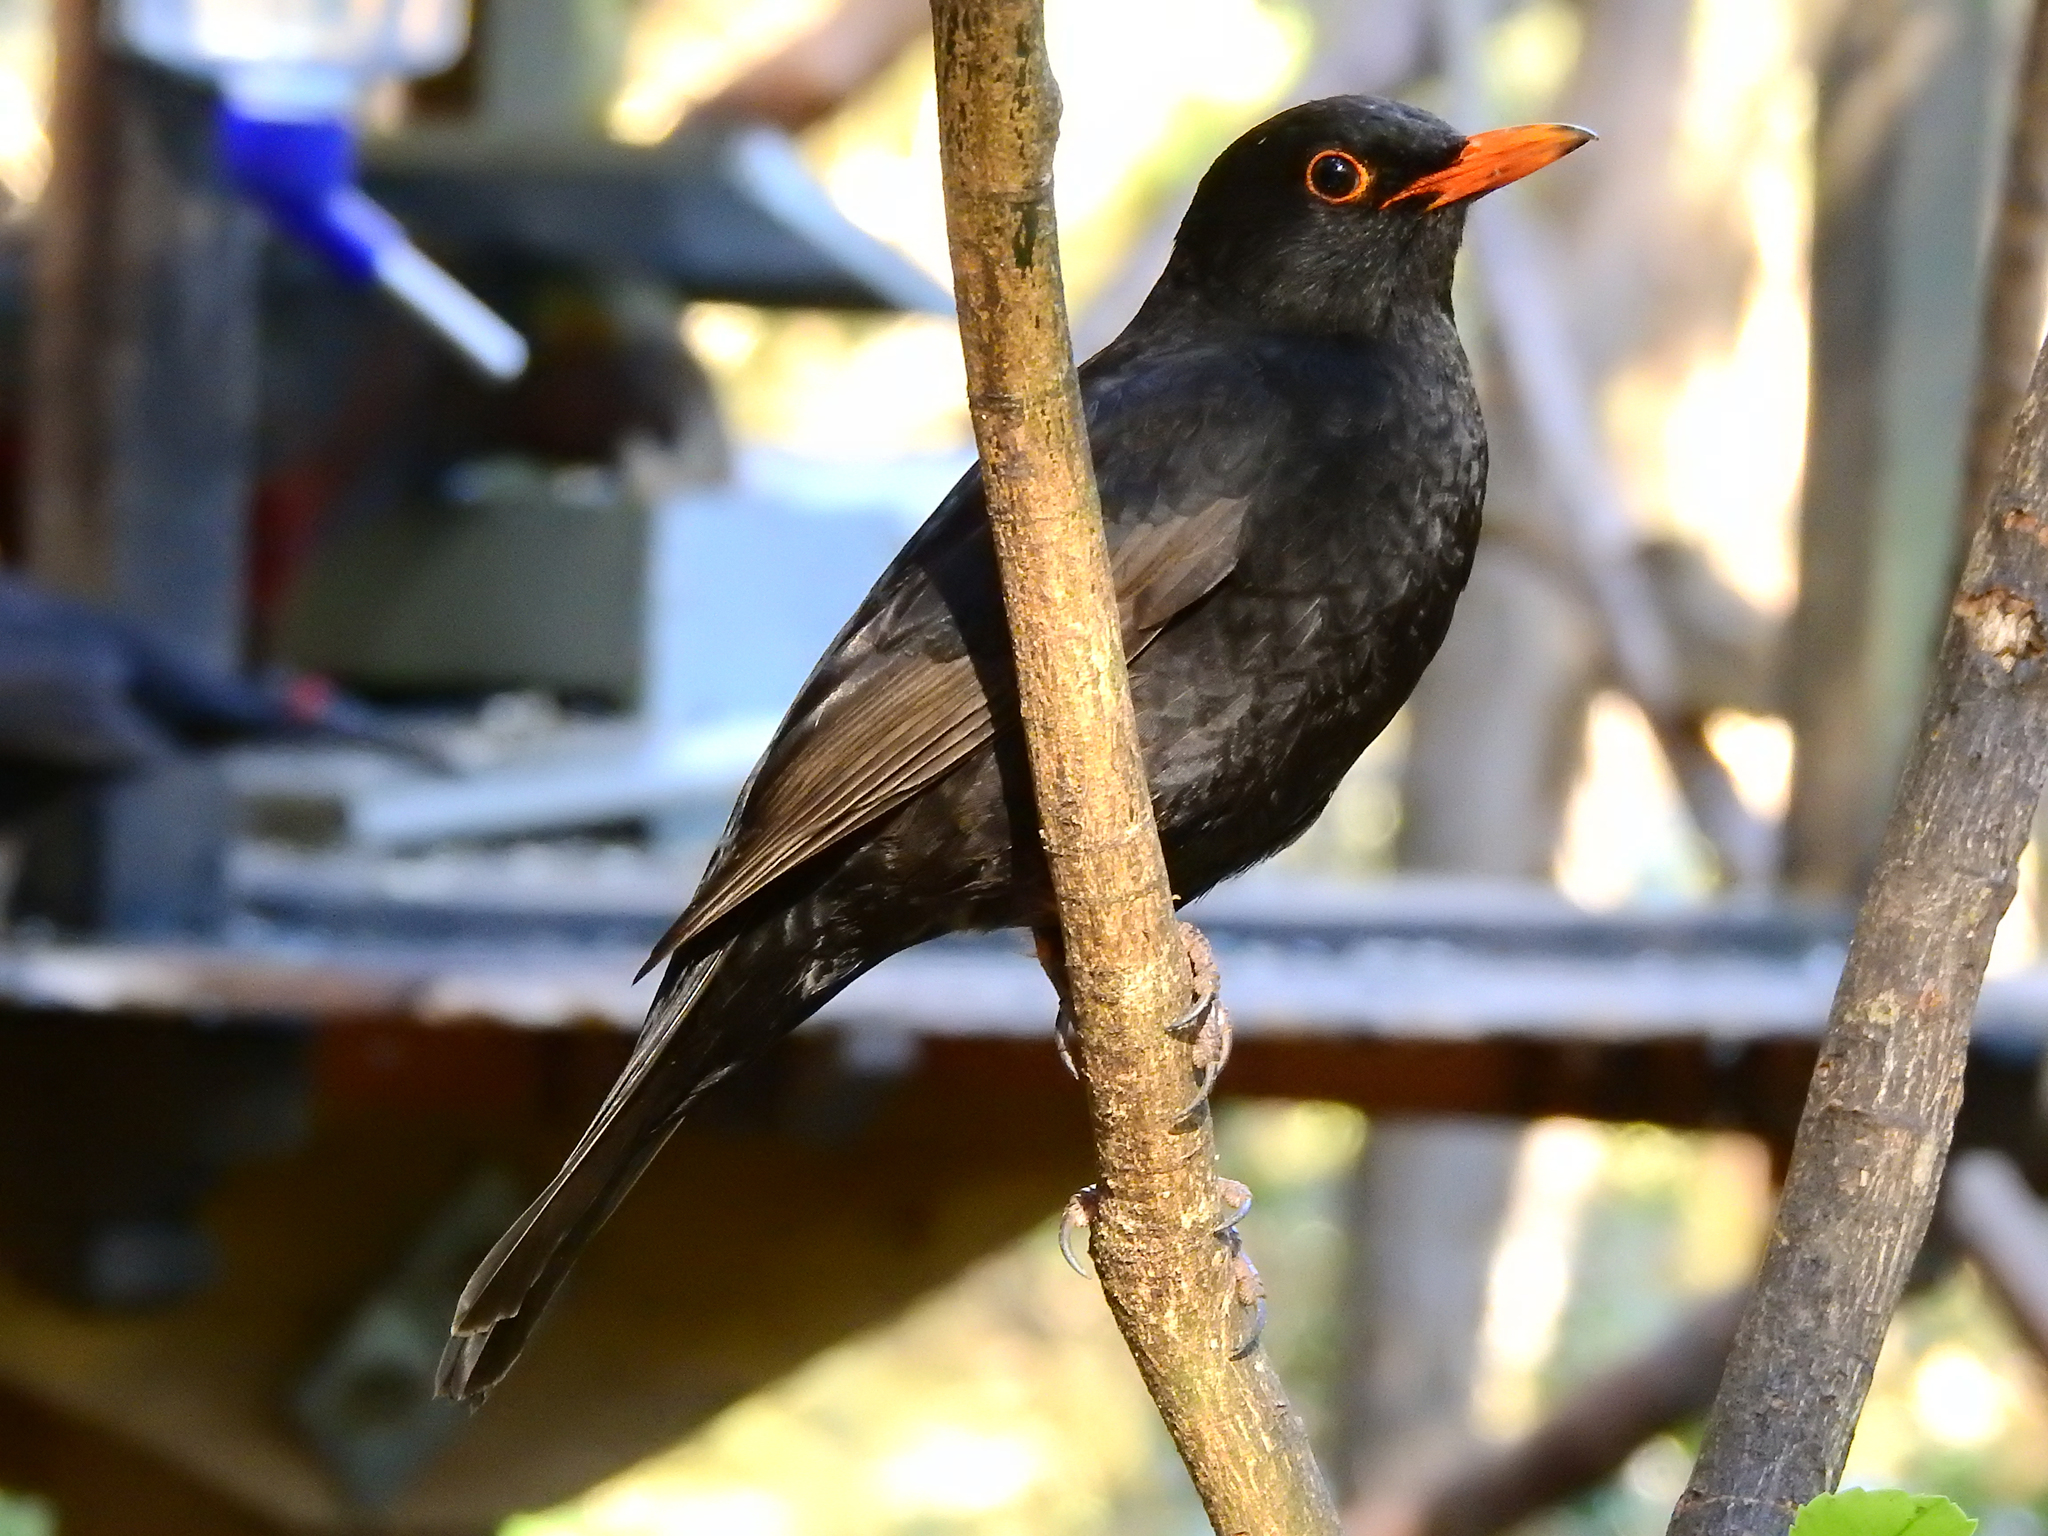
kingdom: Animalia
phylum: Chordata
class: Aves
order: Passeriformes
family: Turdidae
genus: Turdus
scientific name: Turdus merula
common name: Common blackbird
